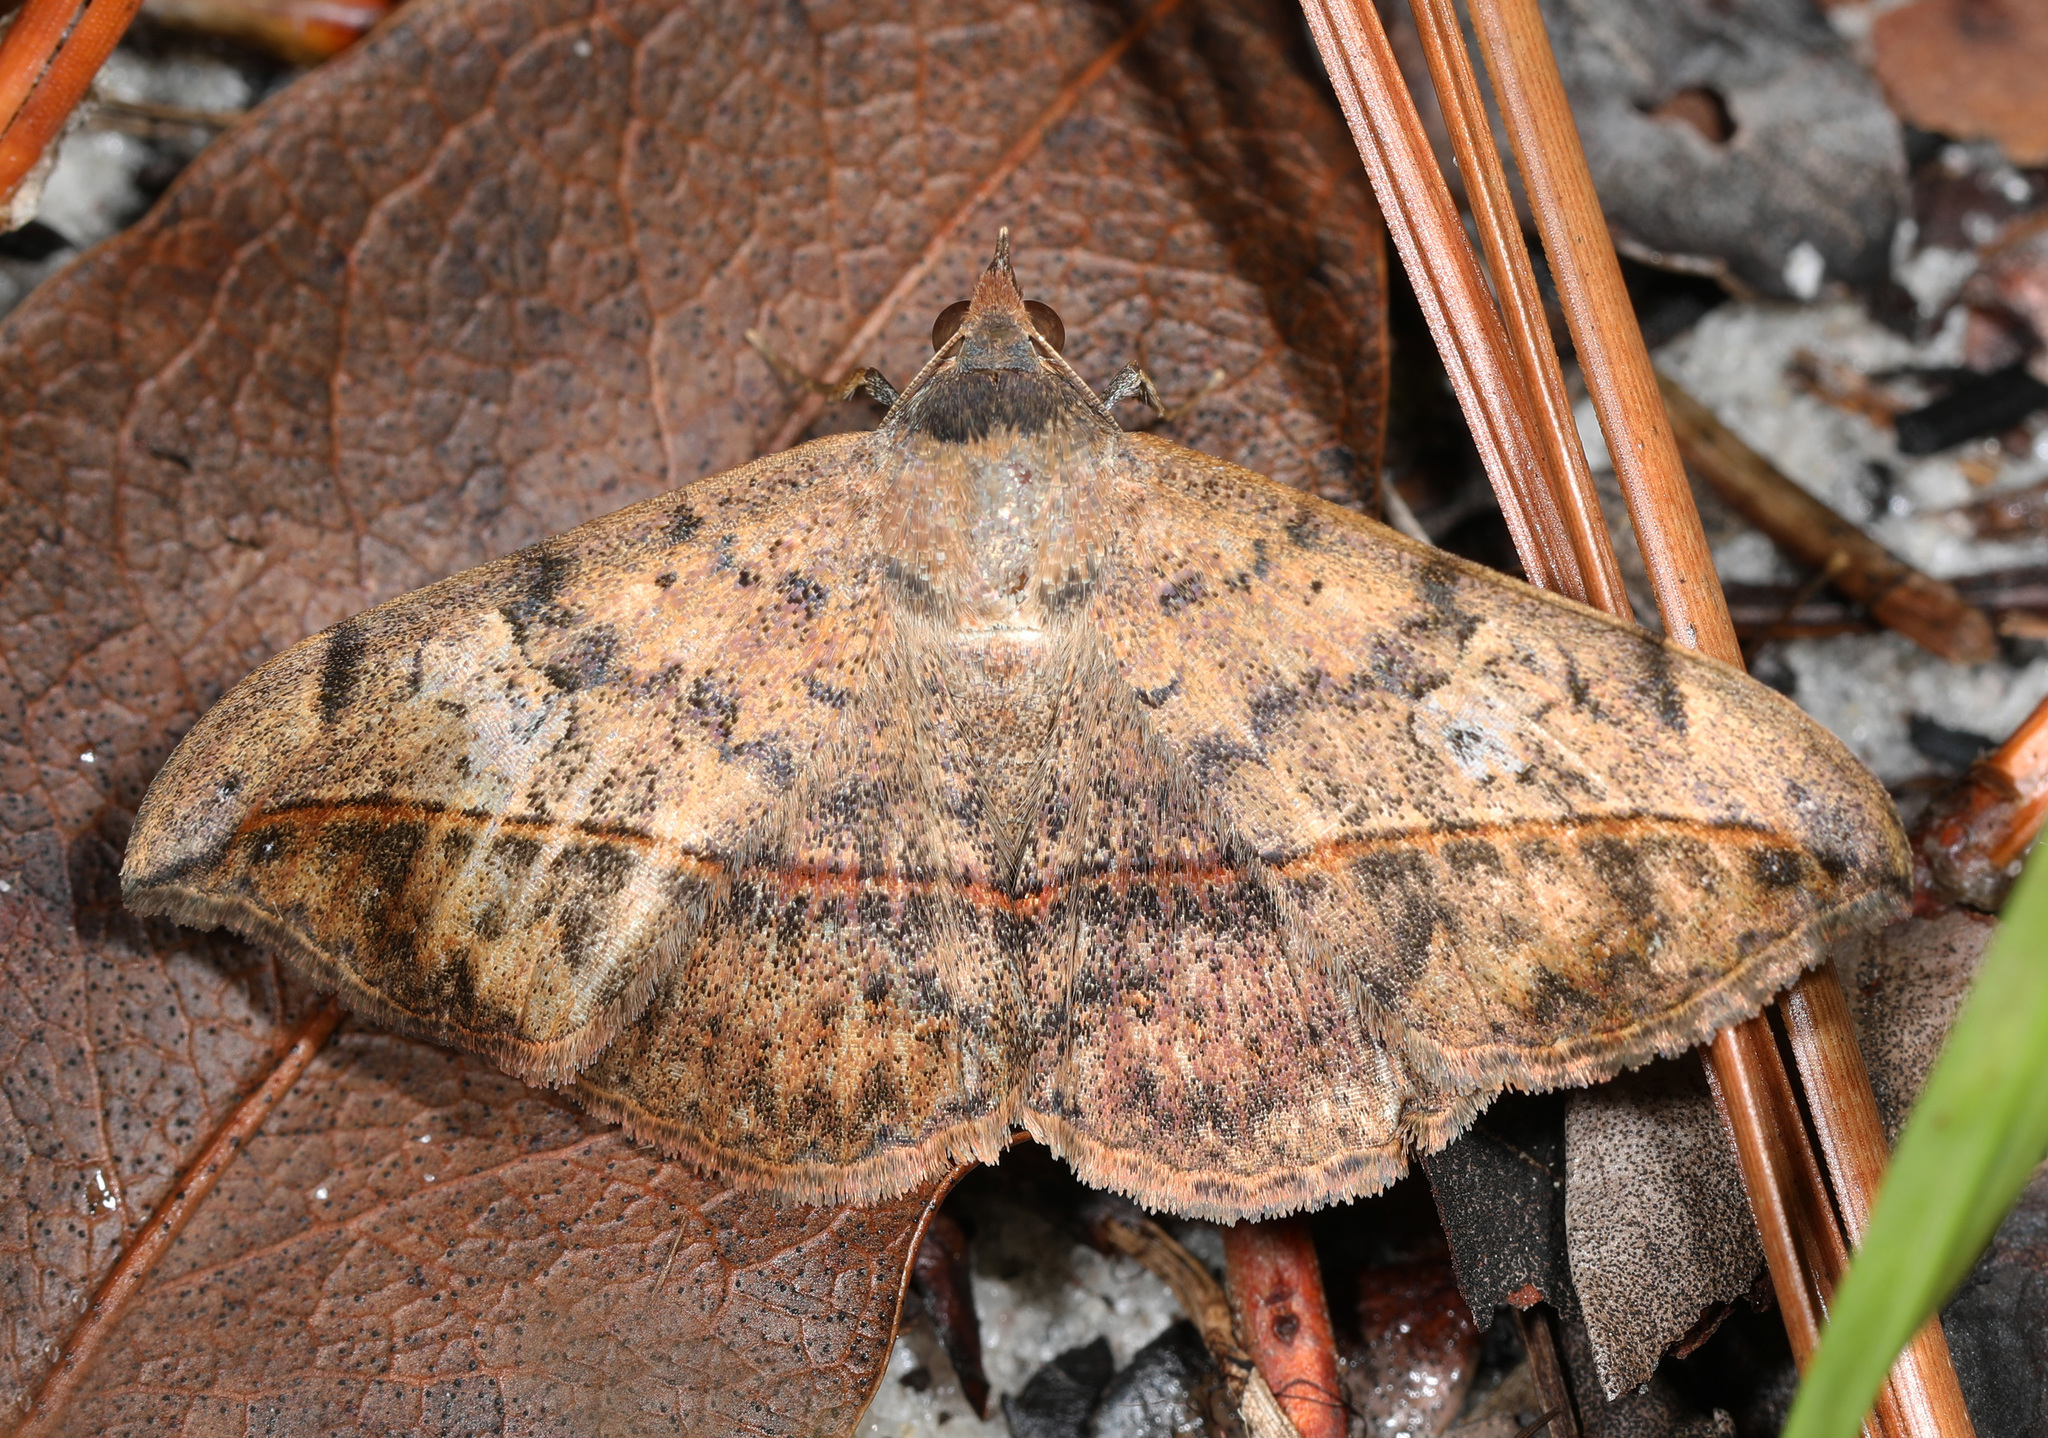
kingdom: Animalia
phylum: Arthropoda
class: Insecta
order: Lepidoptera
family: Erebidae
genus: Anticarsia
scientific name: Anticarsia gemmatalis
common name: Cutworm moth
